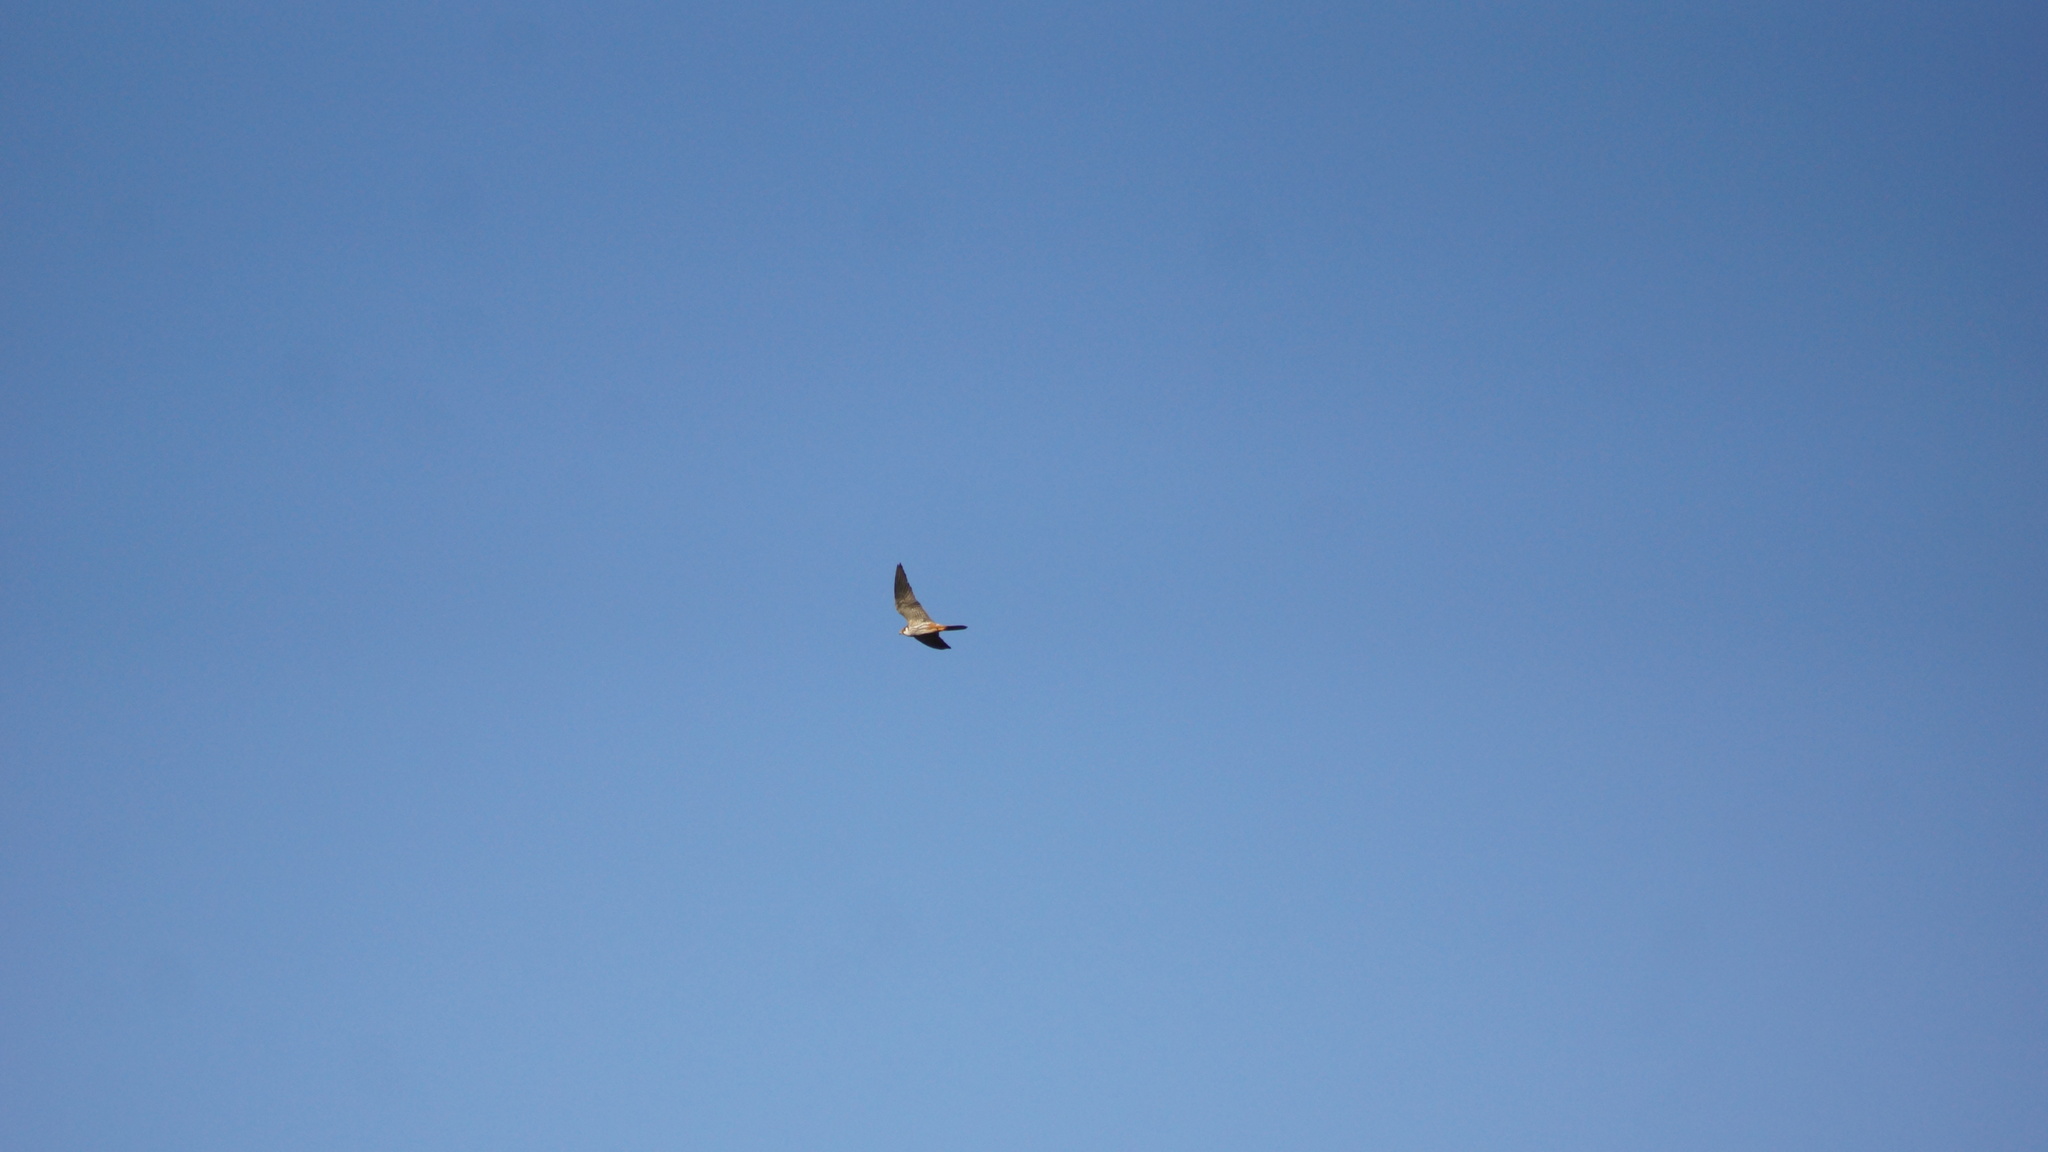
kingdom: Animalia
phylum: Chordata
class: Aves
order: Falconiformes
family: Falconidae
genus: Falco
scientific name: Falco subbuteo
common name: Eurasian hobby
